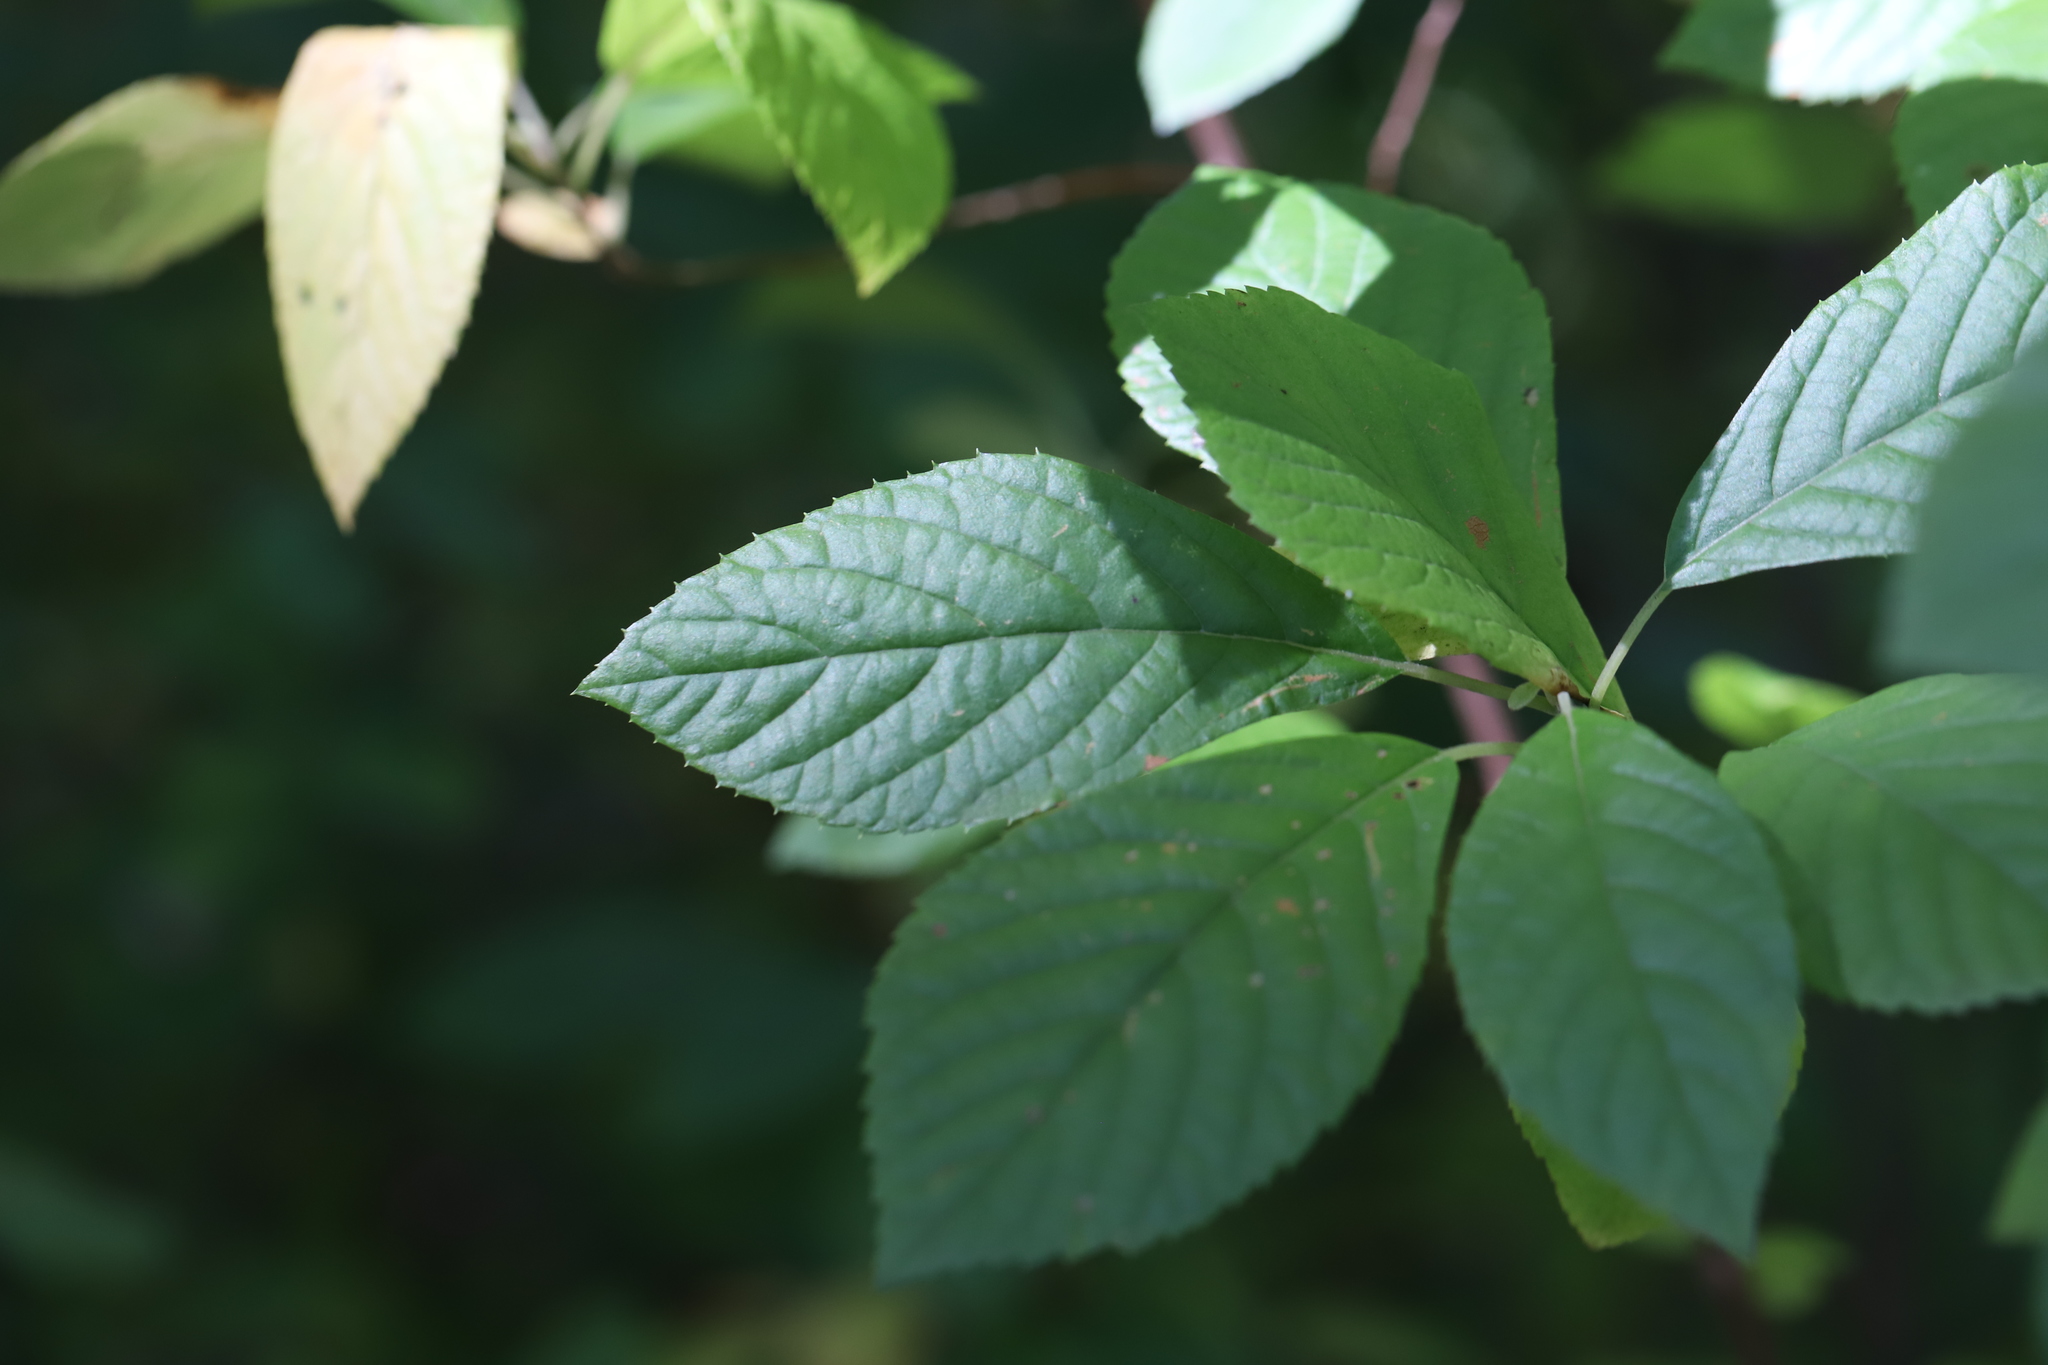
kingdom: Plantae
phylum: Tracheophyta
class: Magnoliopsida
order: Ericales
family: Clethraceae
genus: Clethra
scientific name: Clethra alnifolia
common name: Sweet pepperbush
